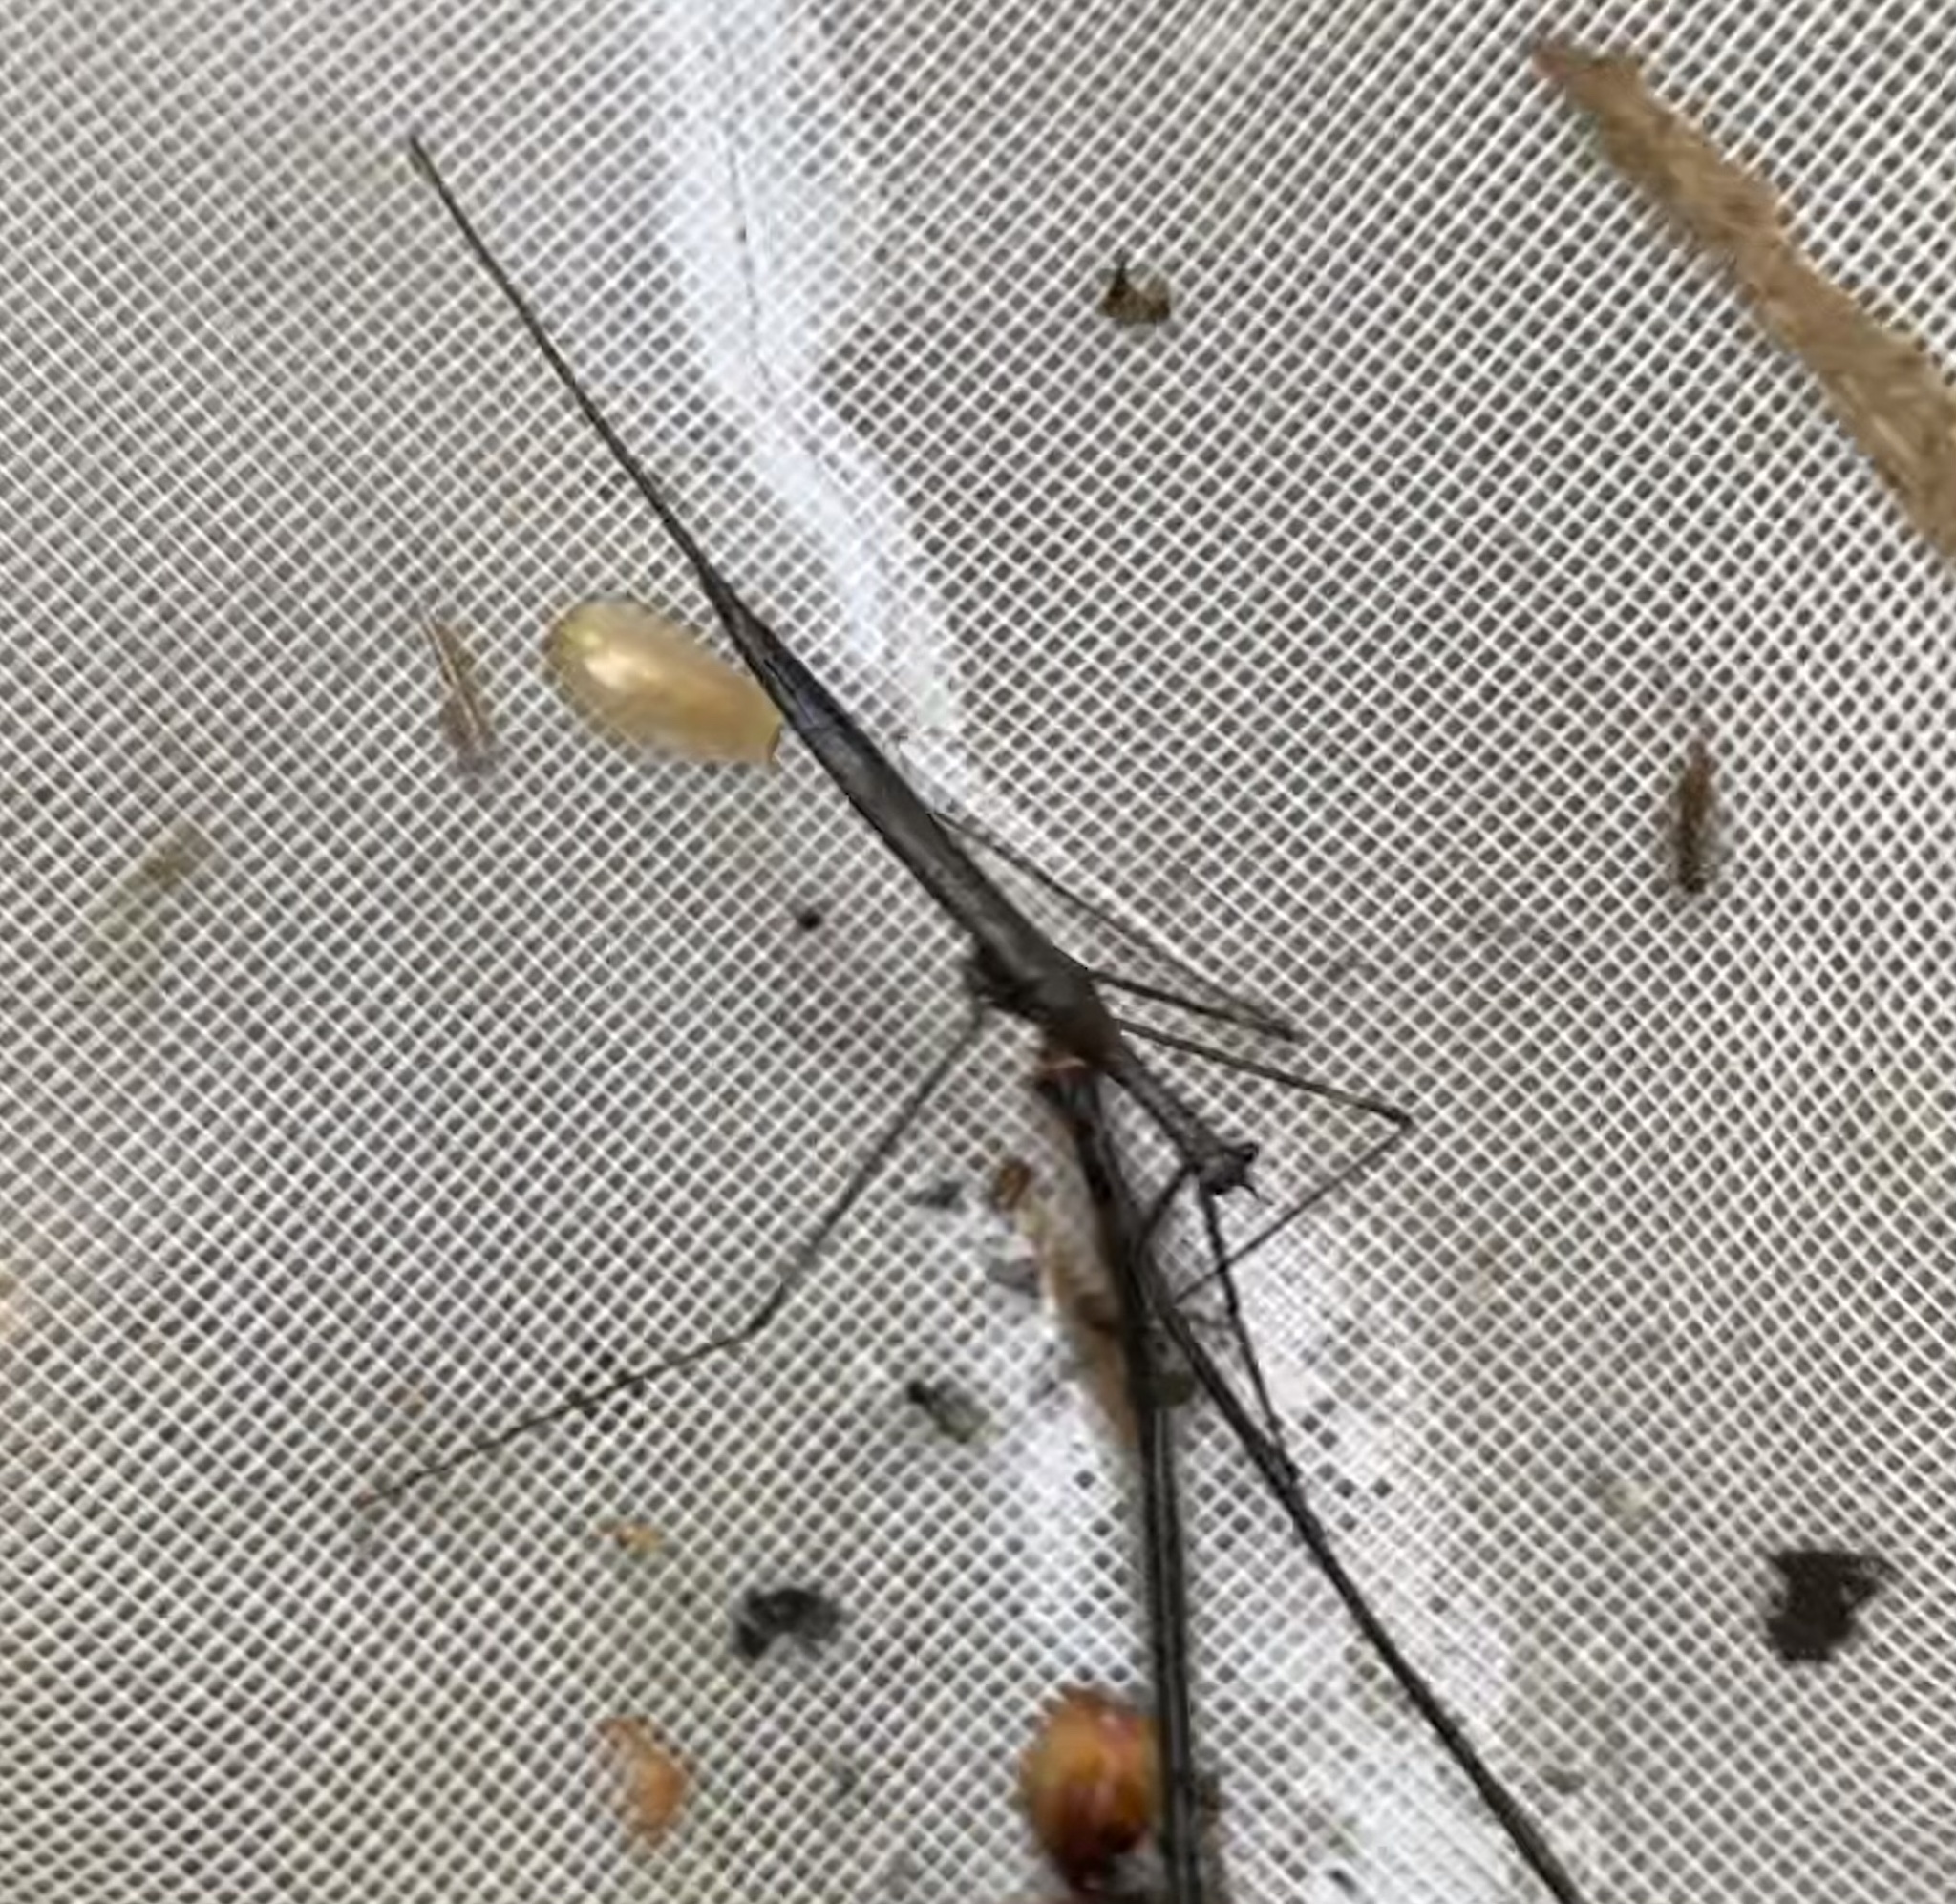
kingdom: Animalia
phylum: Arthropoda
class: Insecta
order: Hemiptera
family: Nepidae
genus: Ranatra
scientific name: Ranatra
